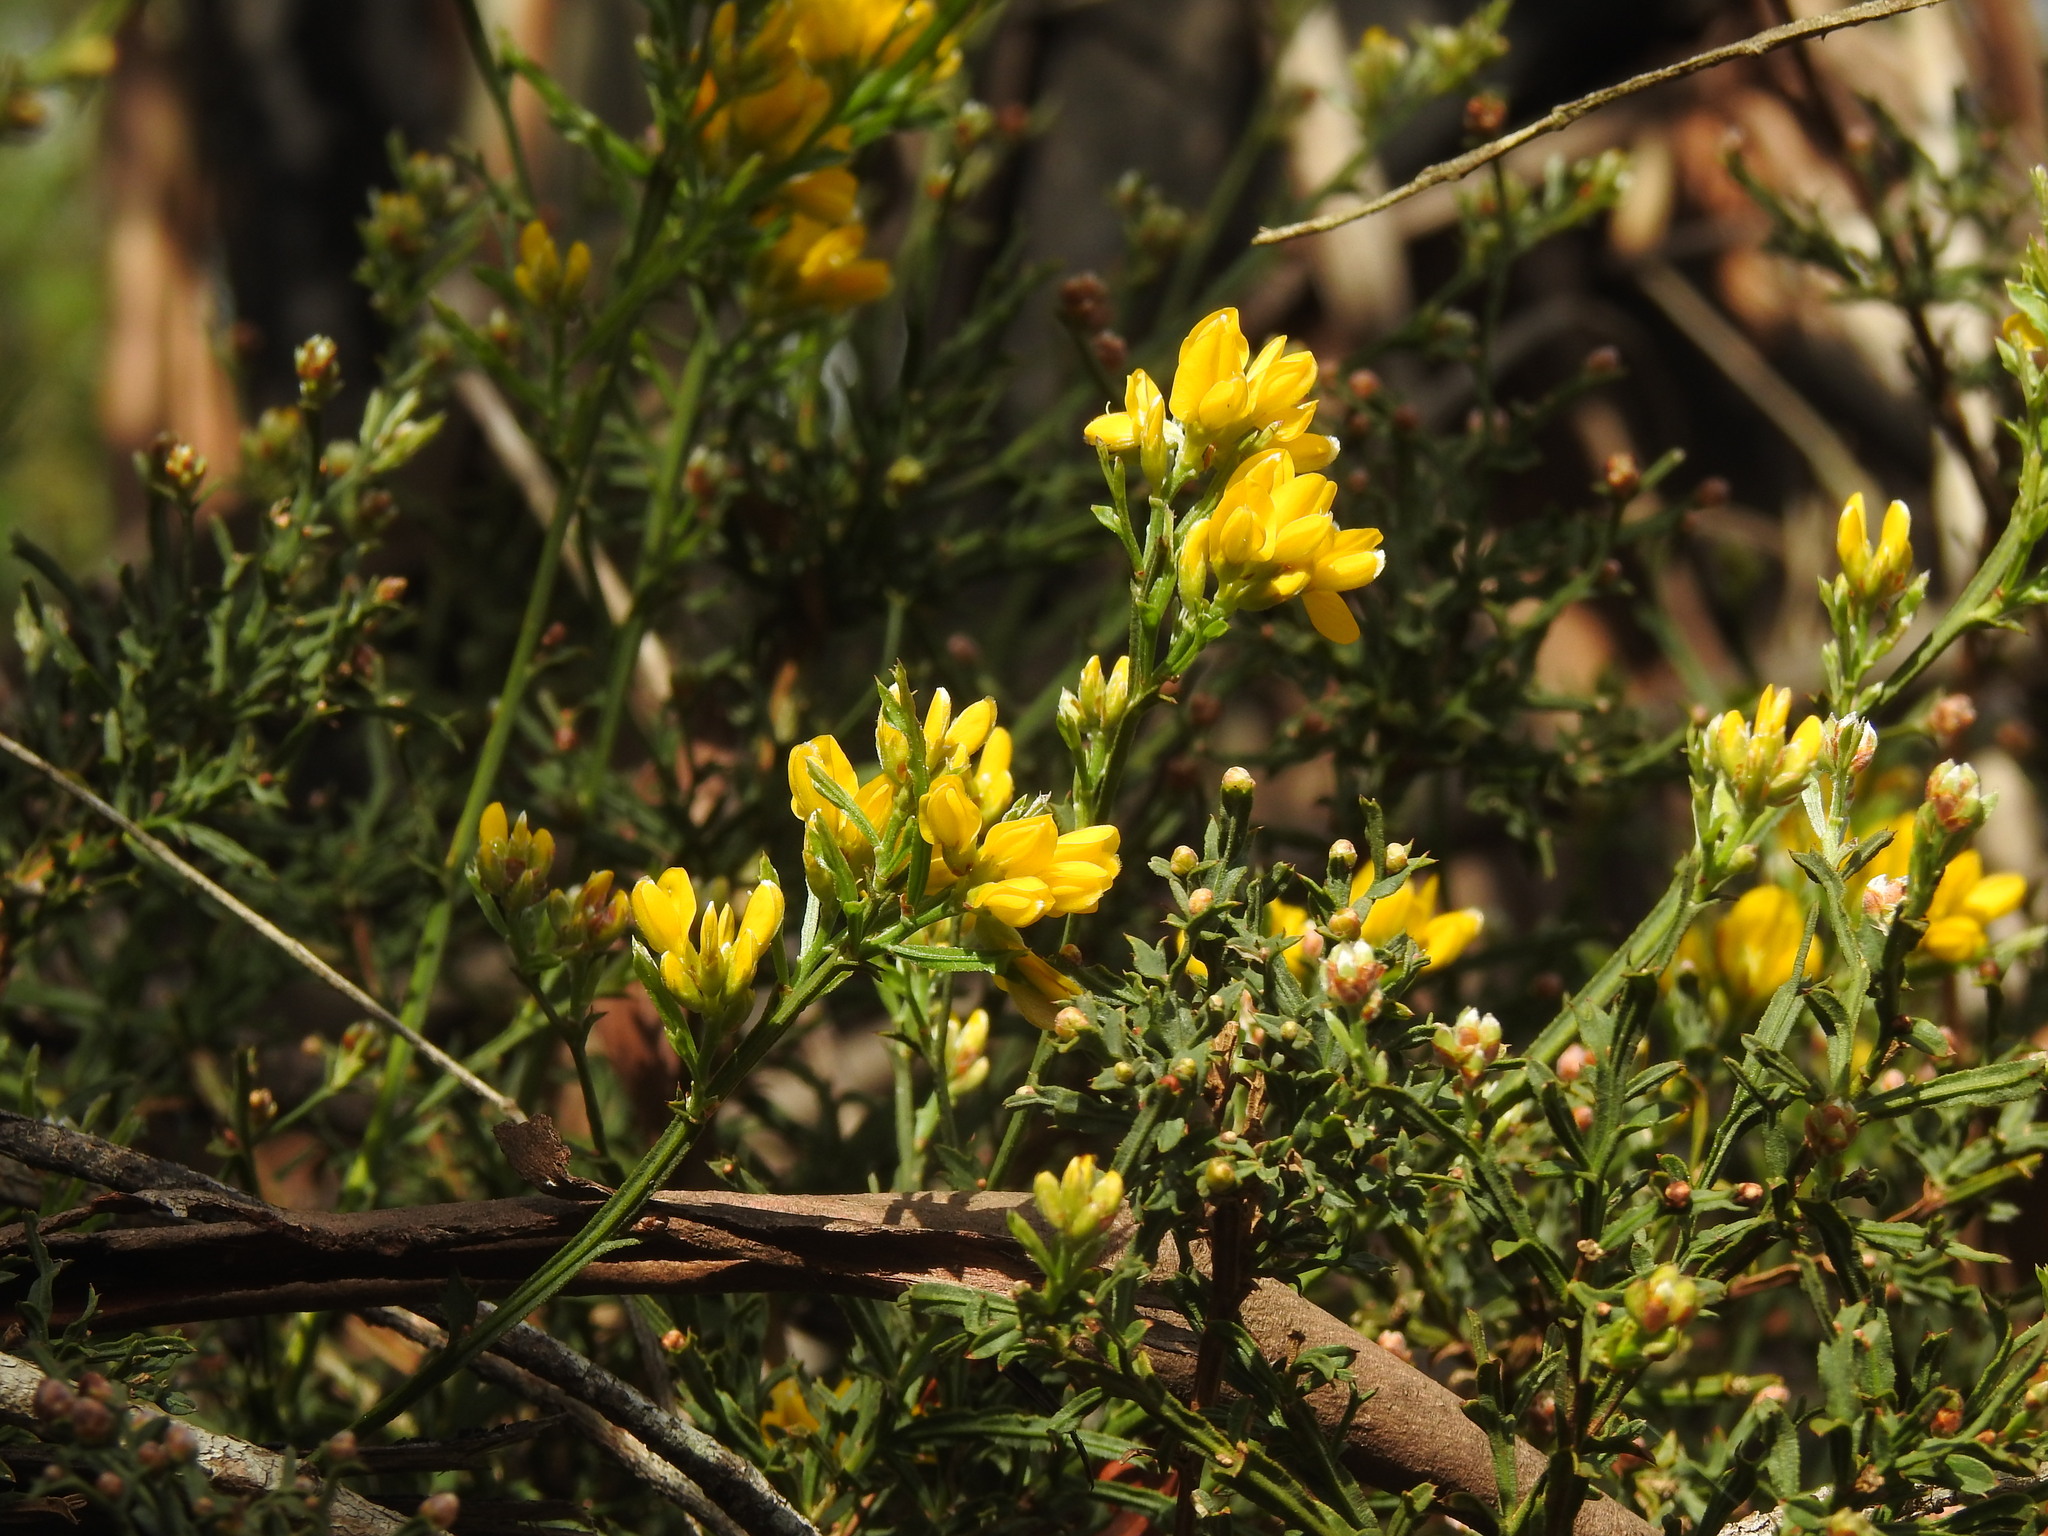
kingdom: Plantae
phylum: Tracheophyta
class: Magnoliopsida
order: Fabales
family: Fabaceae
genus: Genista
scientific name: Genista tridentata
